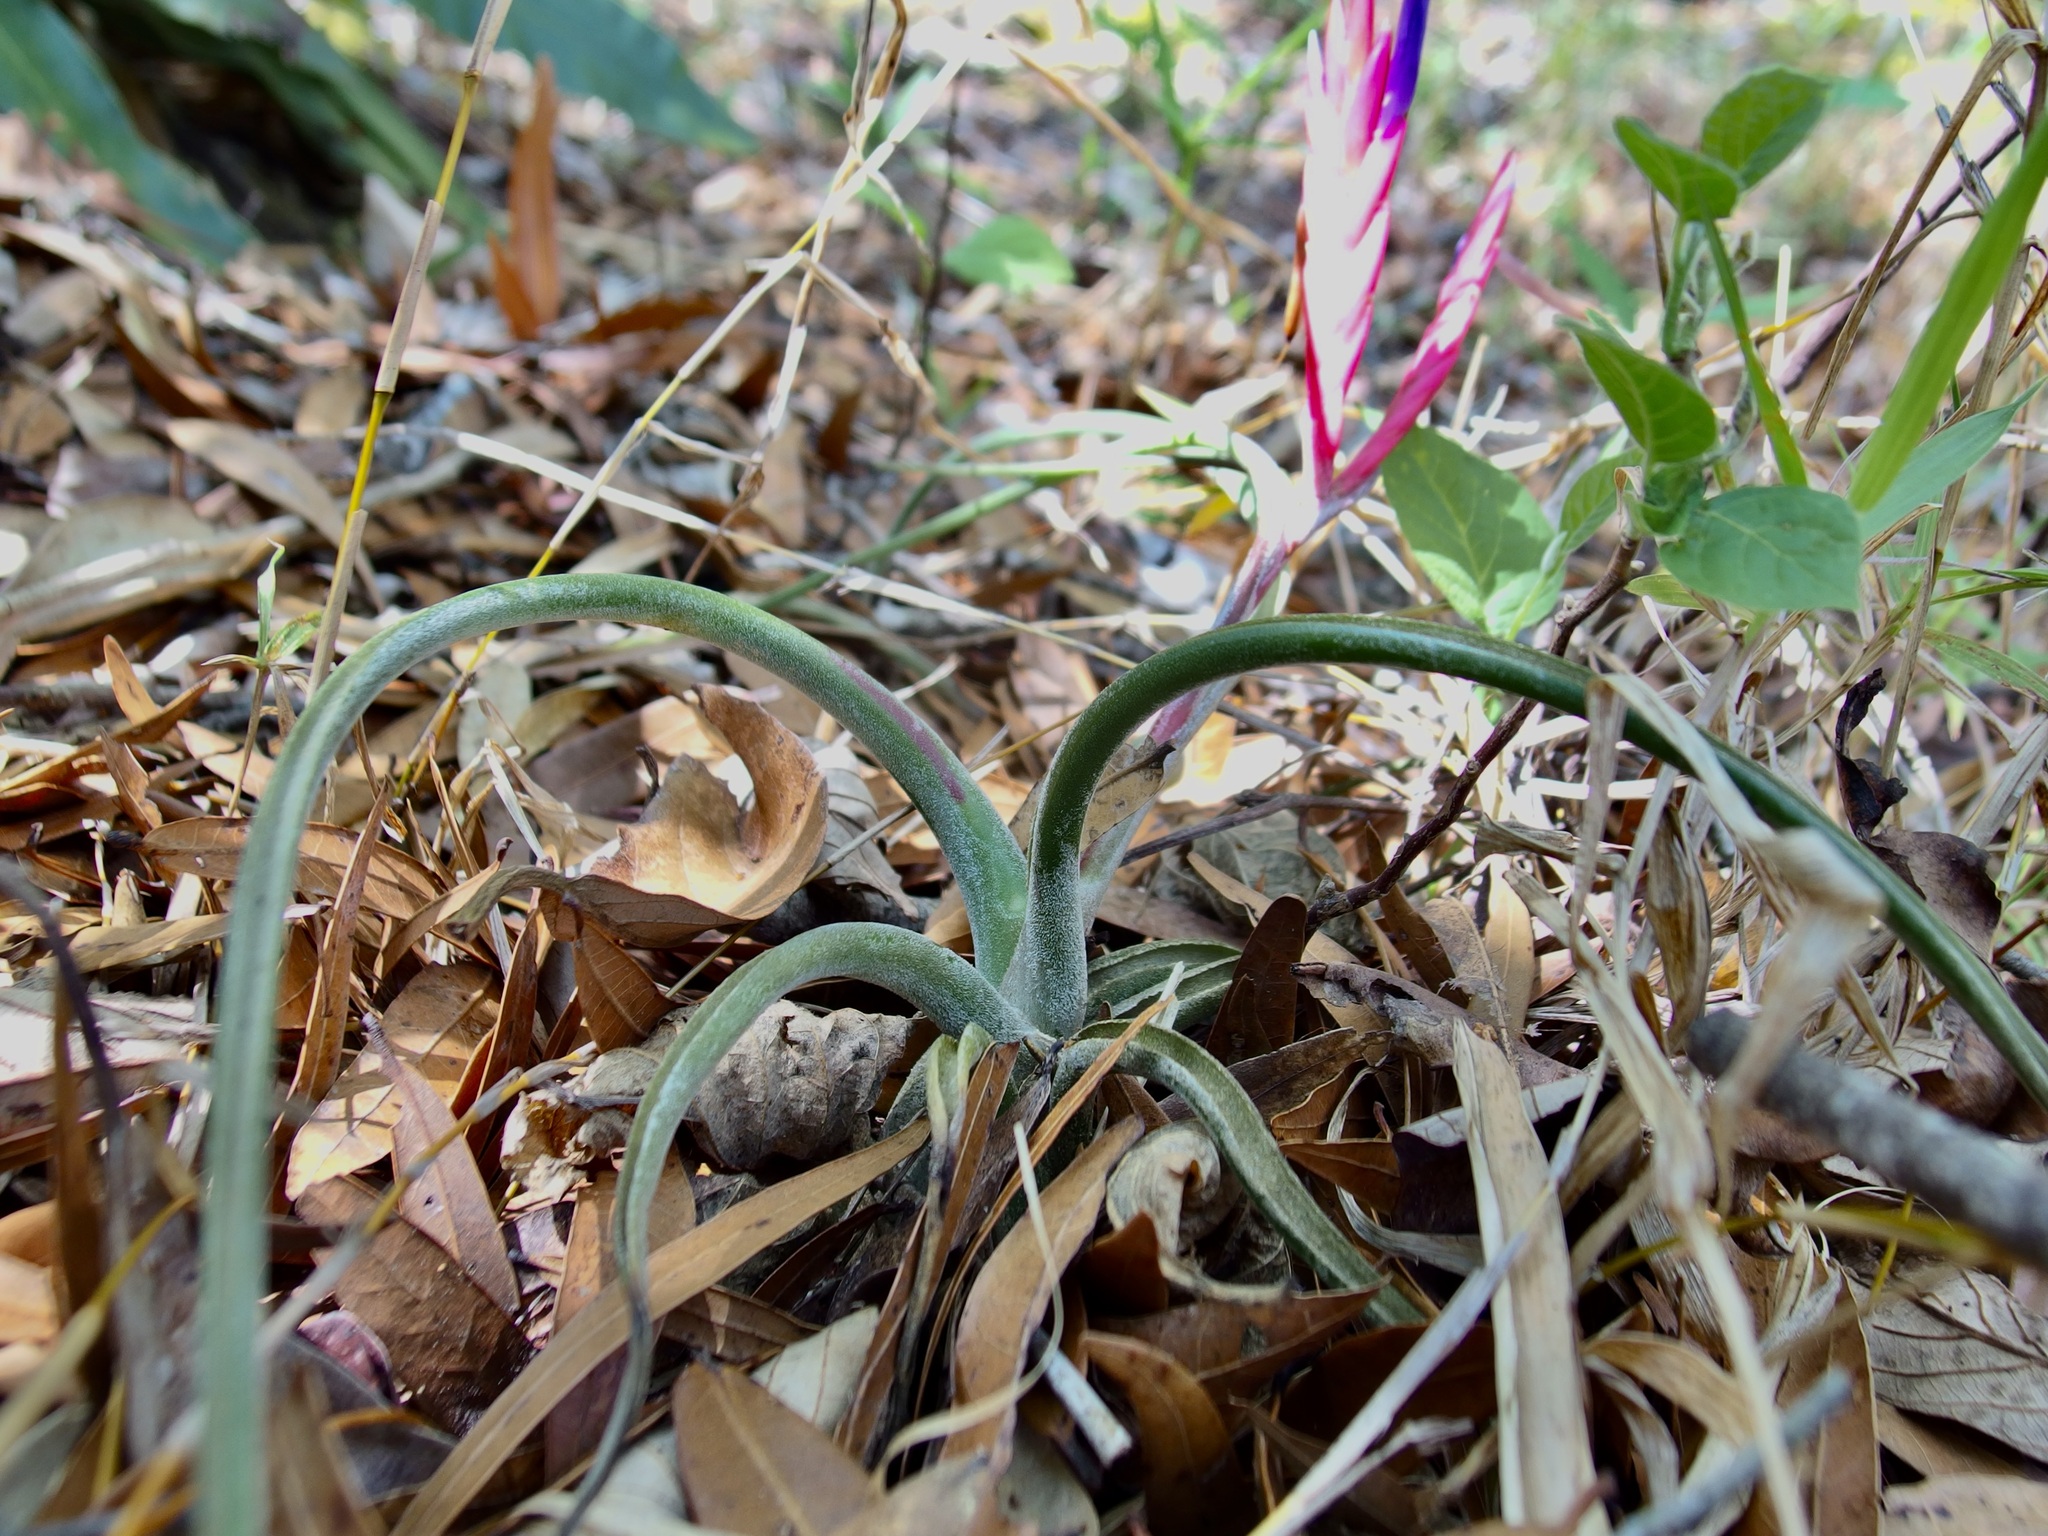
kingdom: Plantae
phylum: Tracheophyta
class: Liliopsida
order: Poales
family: Bromeliaceae
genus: Tillandsia
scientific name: Tillandsia caput-medusae
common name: Octopus plant
